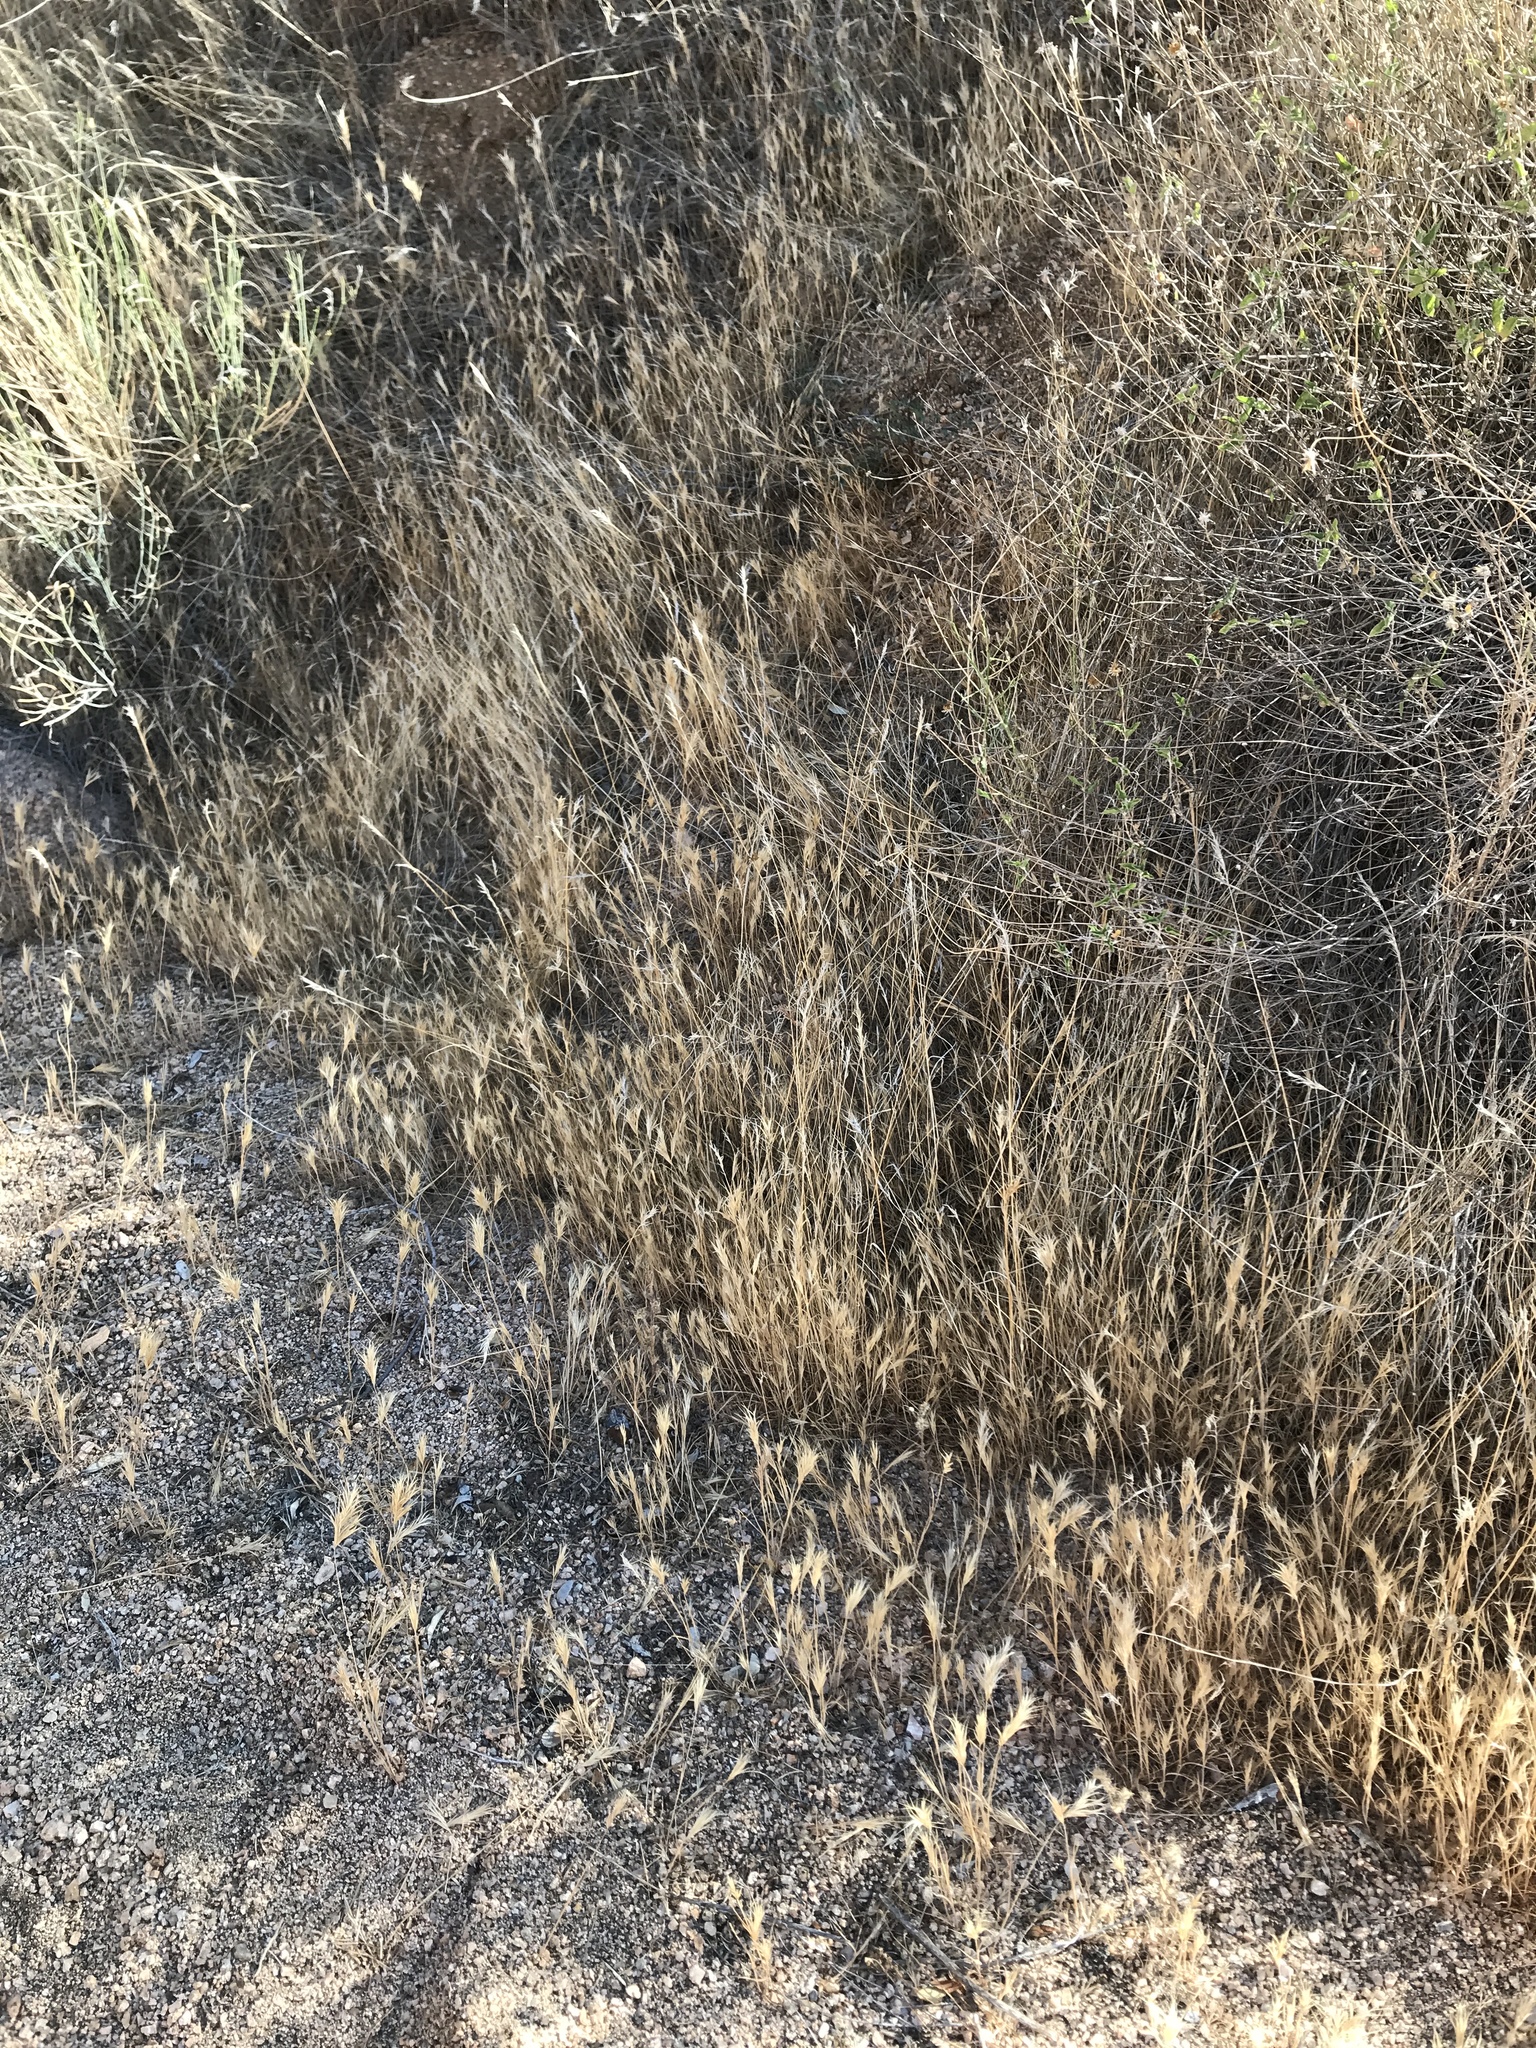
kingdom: Plantae
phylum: Tracheophyta
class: Liliopsida
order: Poales
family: Poaceae
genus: Bromus
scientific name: Bromus rubens
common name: Red brome
